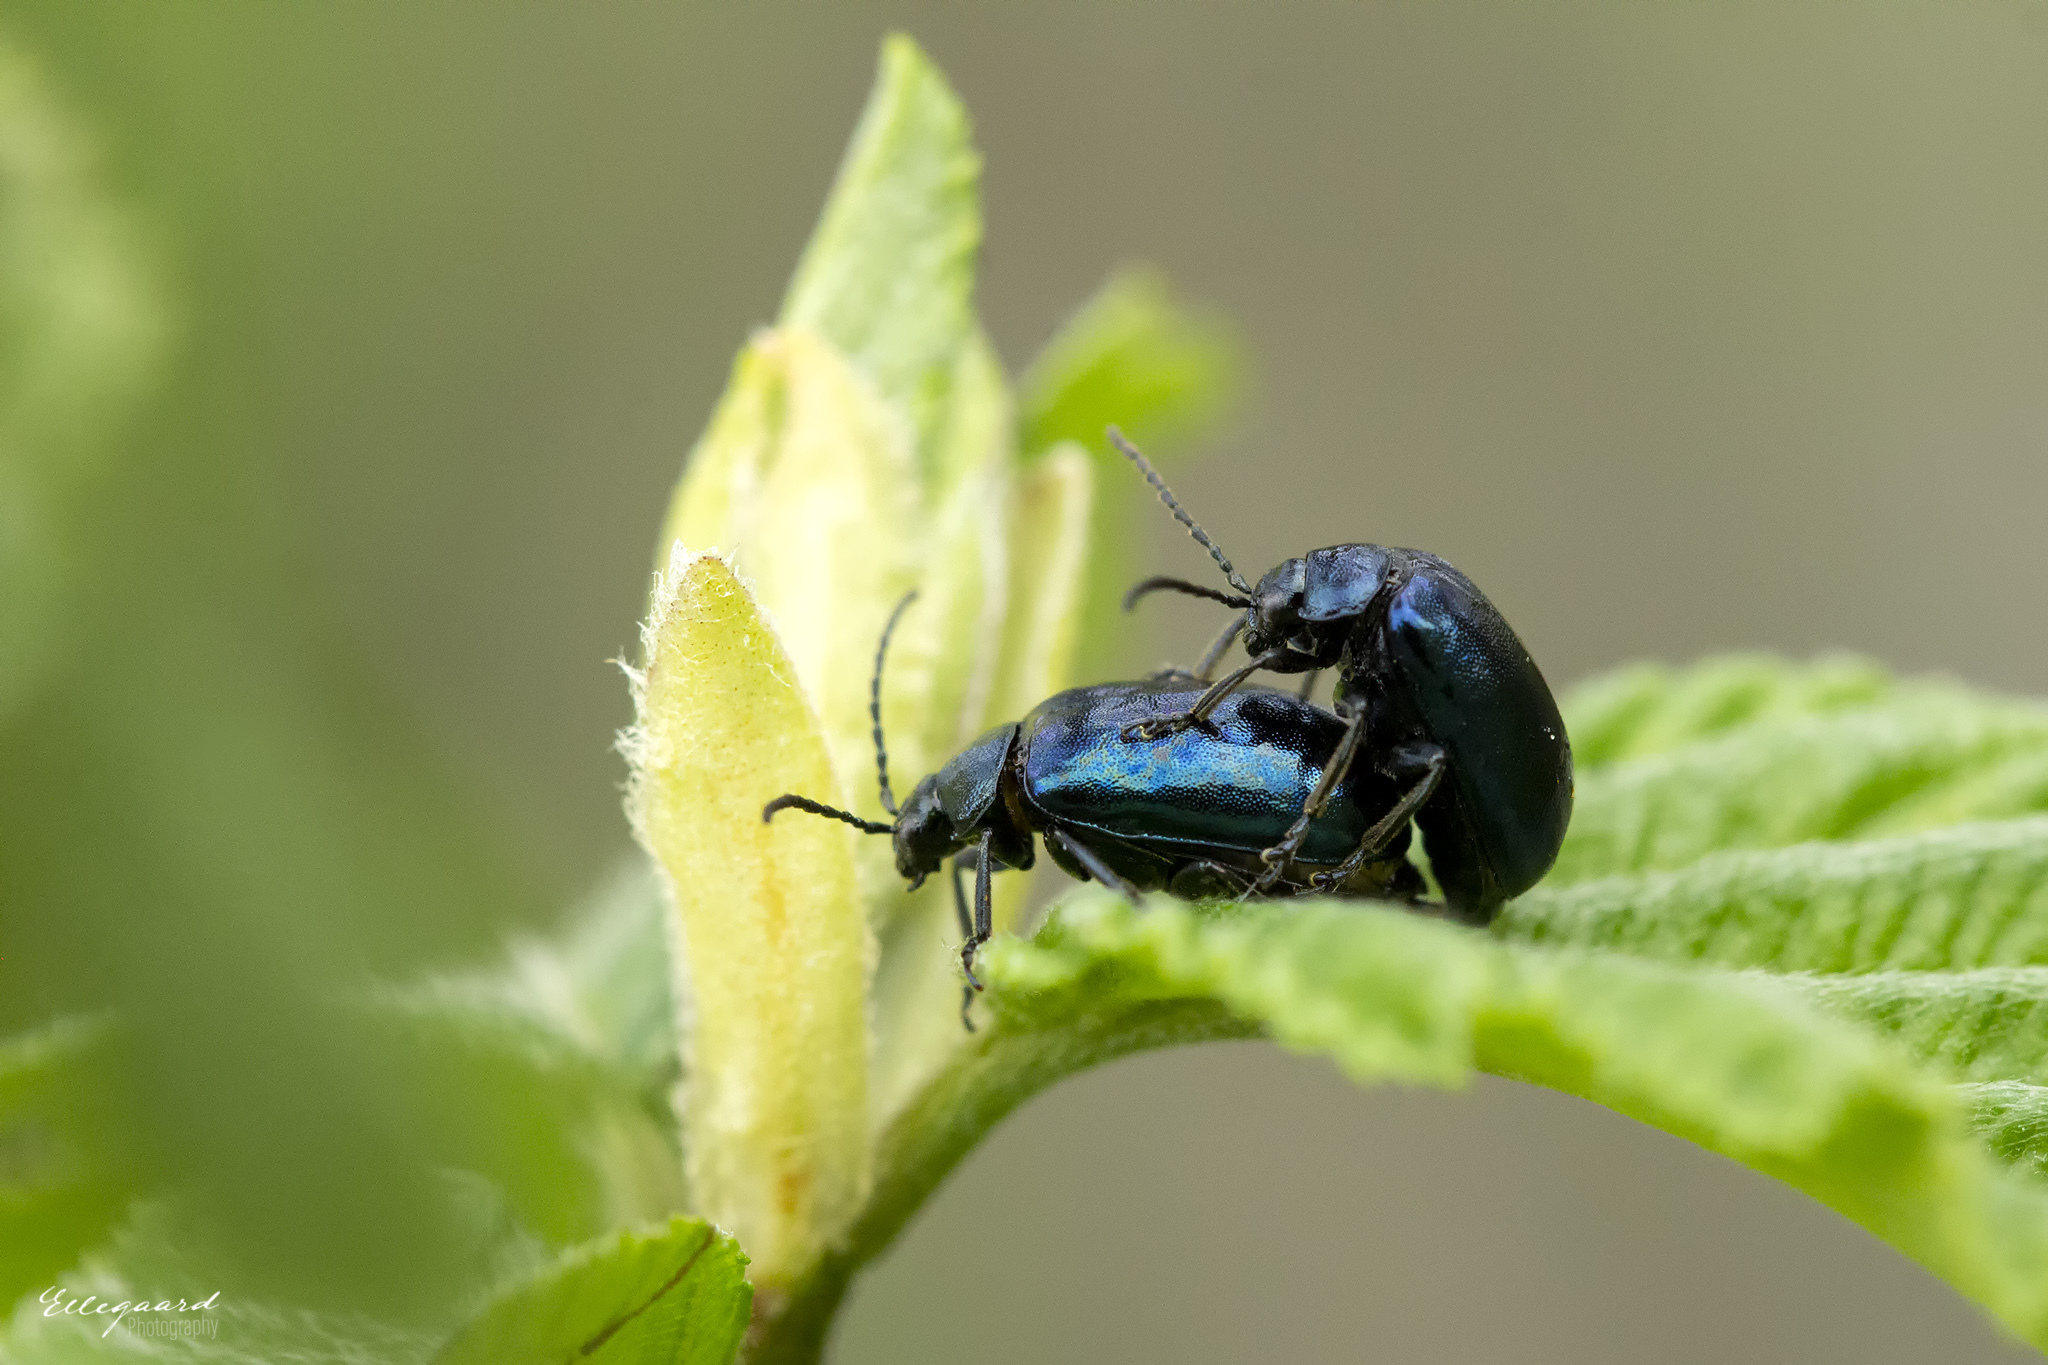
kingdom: Animalia
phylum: Arthropoda
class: Insecta
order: Coleoptera
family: Chrysomelidae
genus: Agelastica
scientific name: Agelastica alni
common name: Alder leaf beetle
